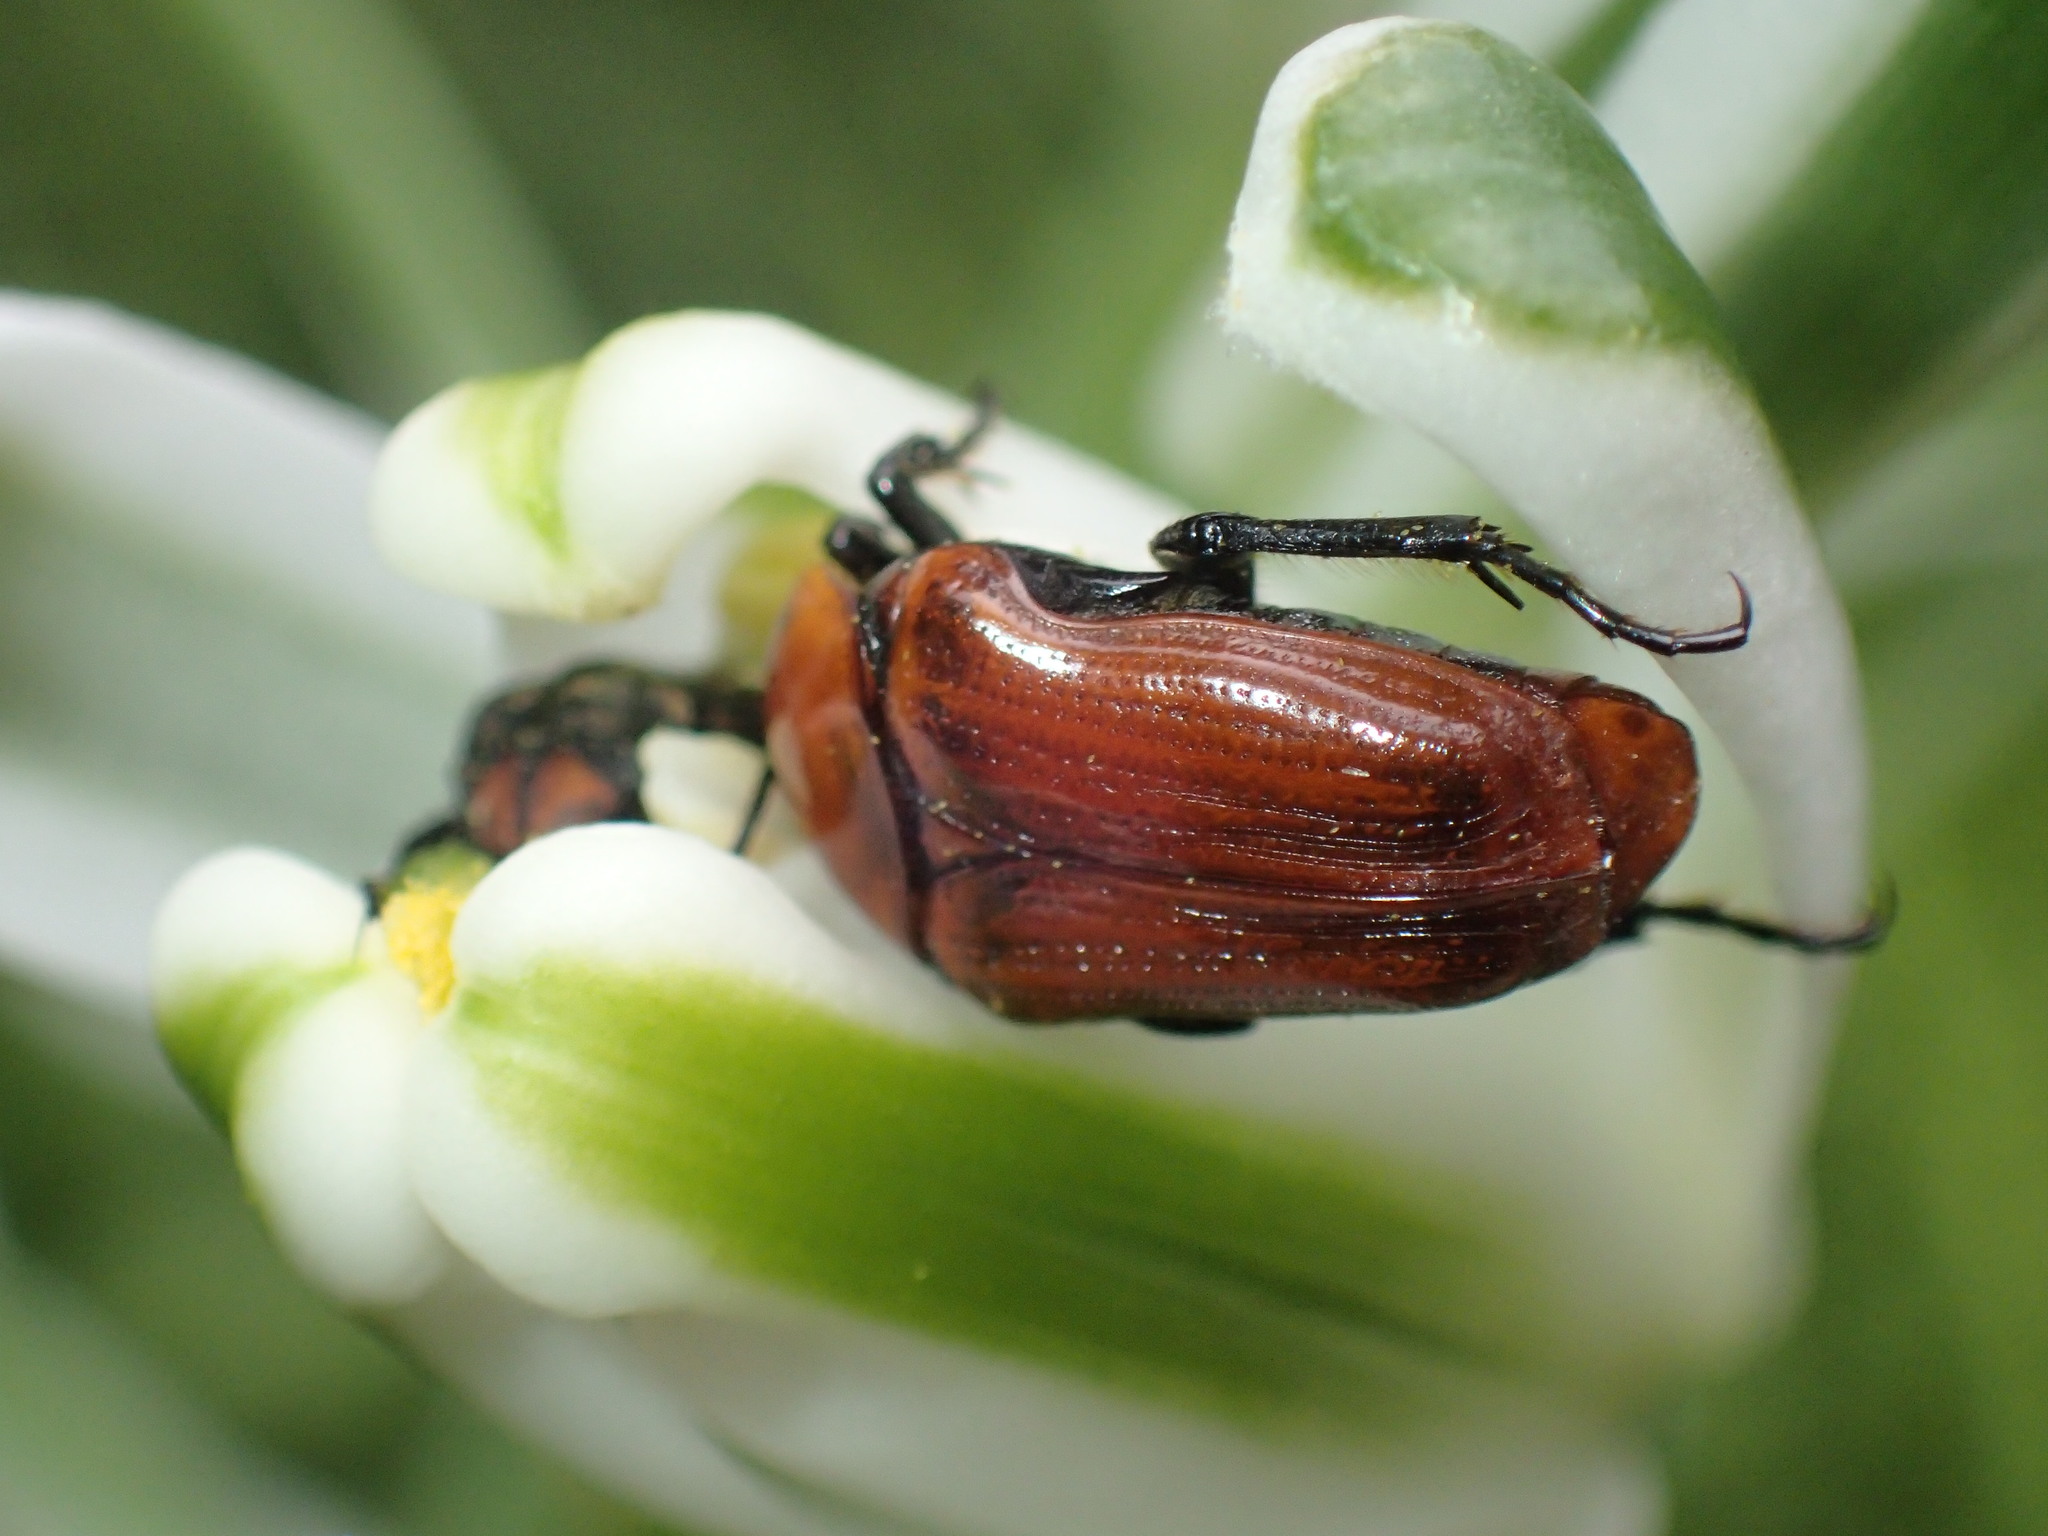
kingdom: Animalia
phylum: Arthropoda
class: Insecta
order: Coleoptera
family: Scarabaeidae
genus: Leucocelis
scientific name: Leucocelis rubra
